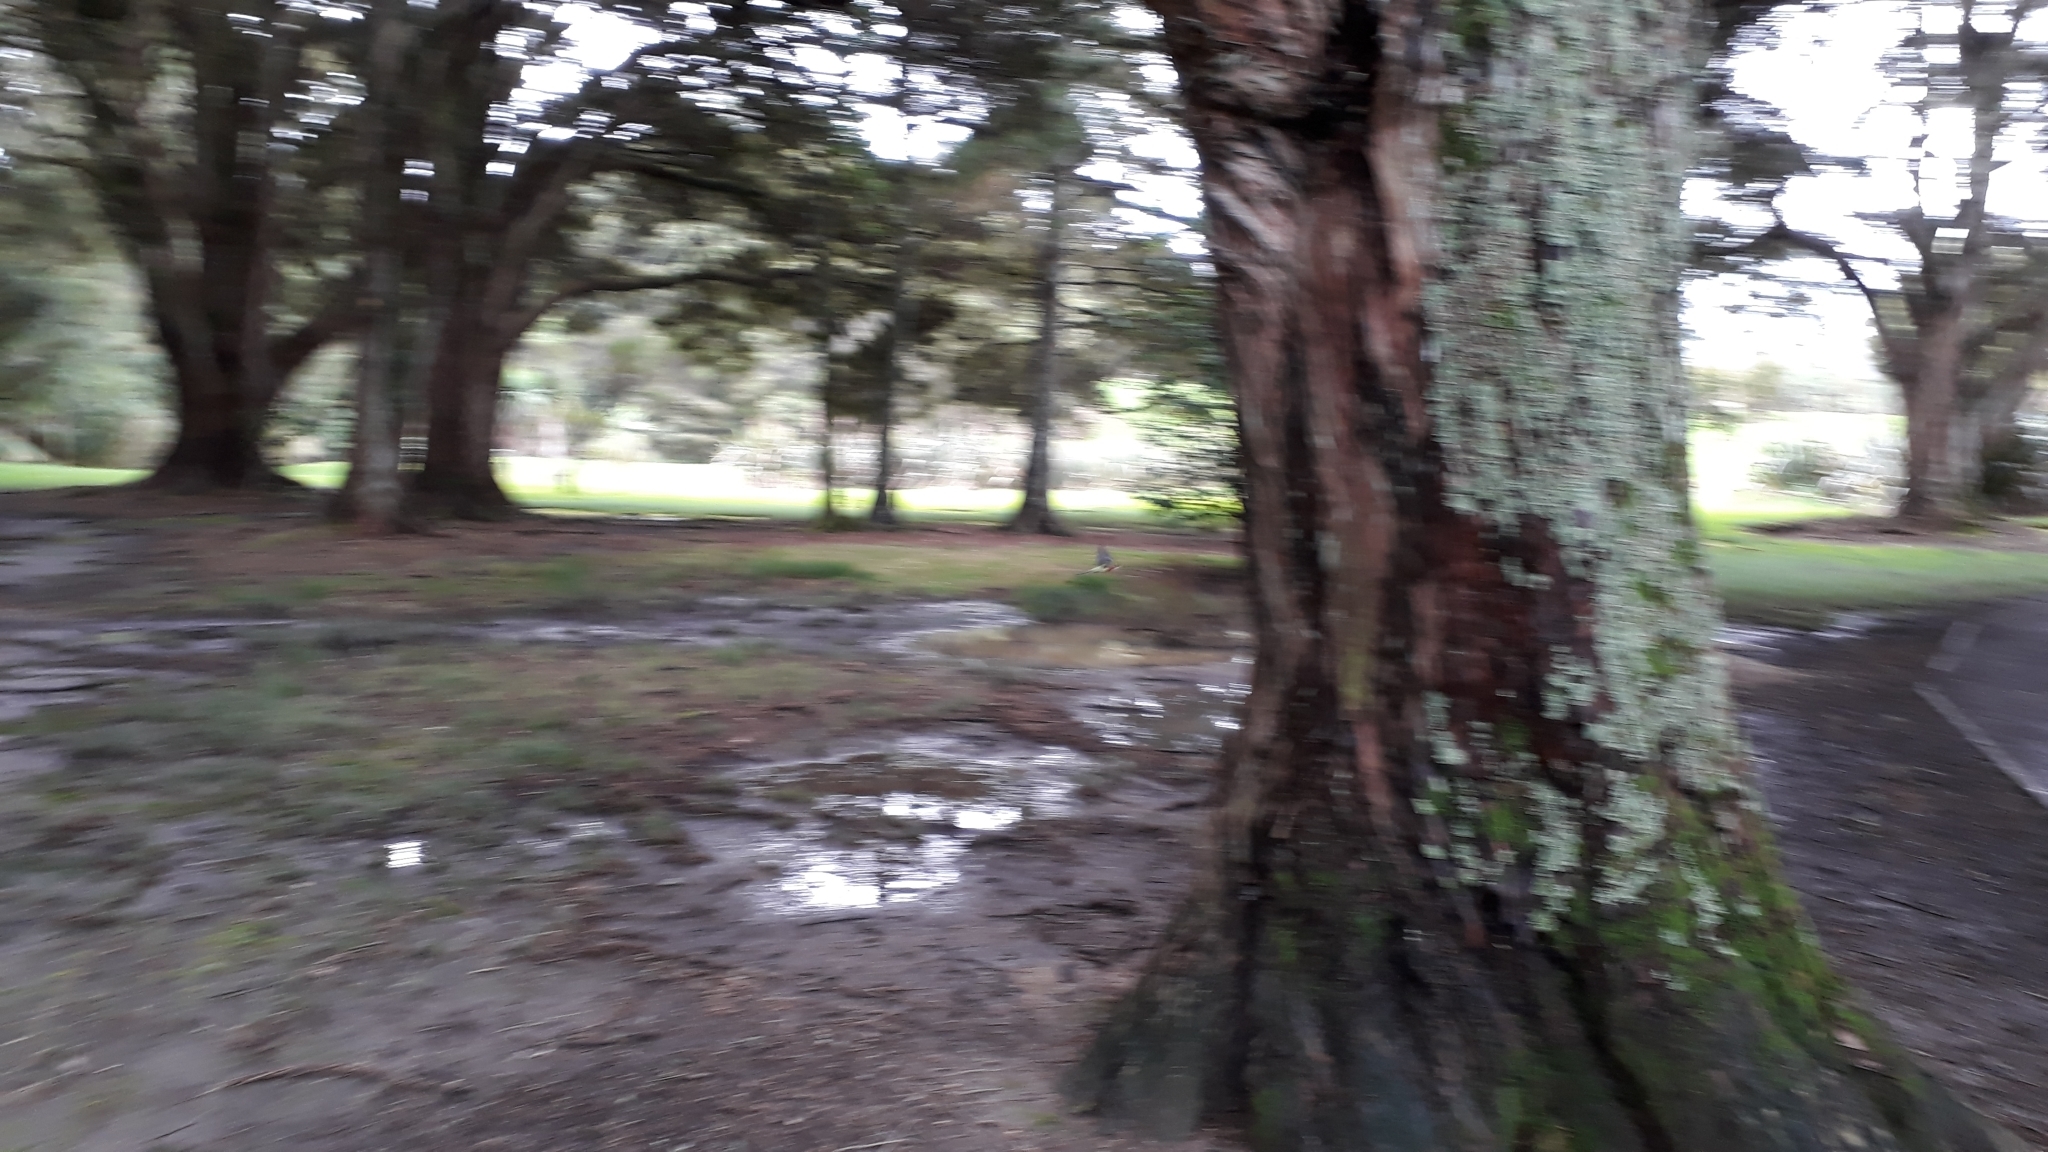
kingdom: Animalia
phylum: Chordata
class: Aves
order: Psittaciformes
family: Psittacidae
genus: Platycercus
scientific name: Platycercus eximius
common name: Eastern rosella
